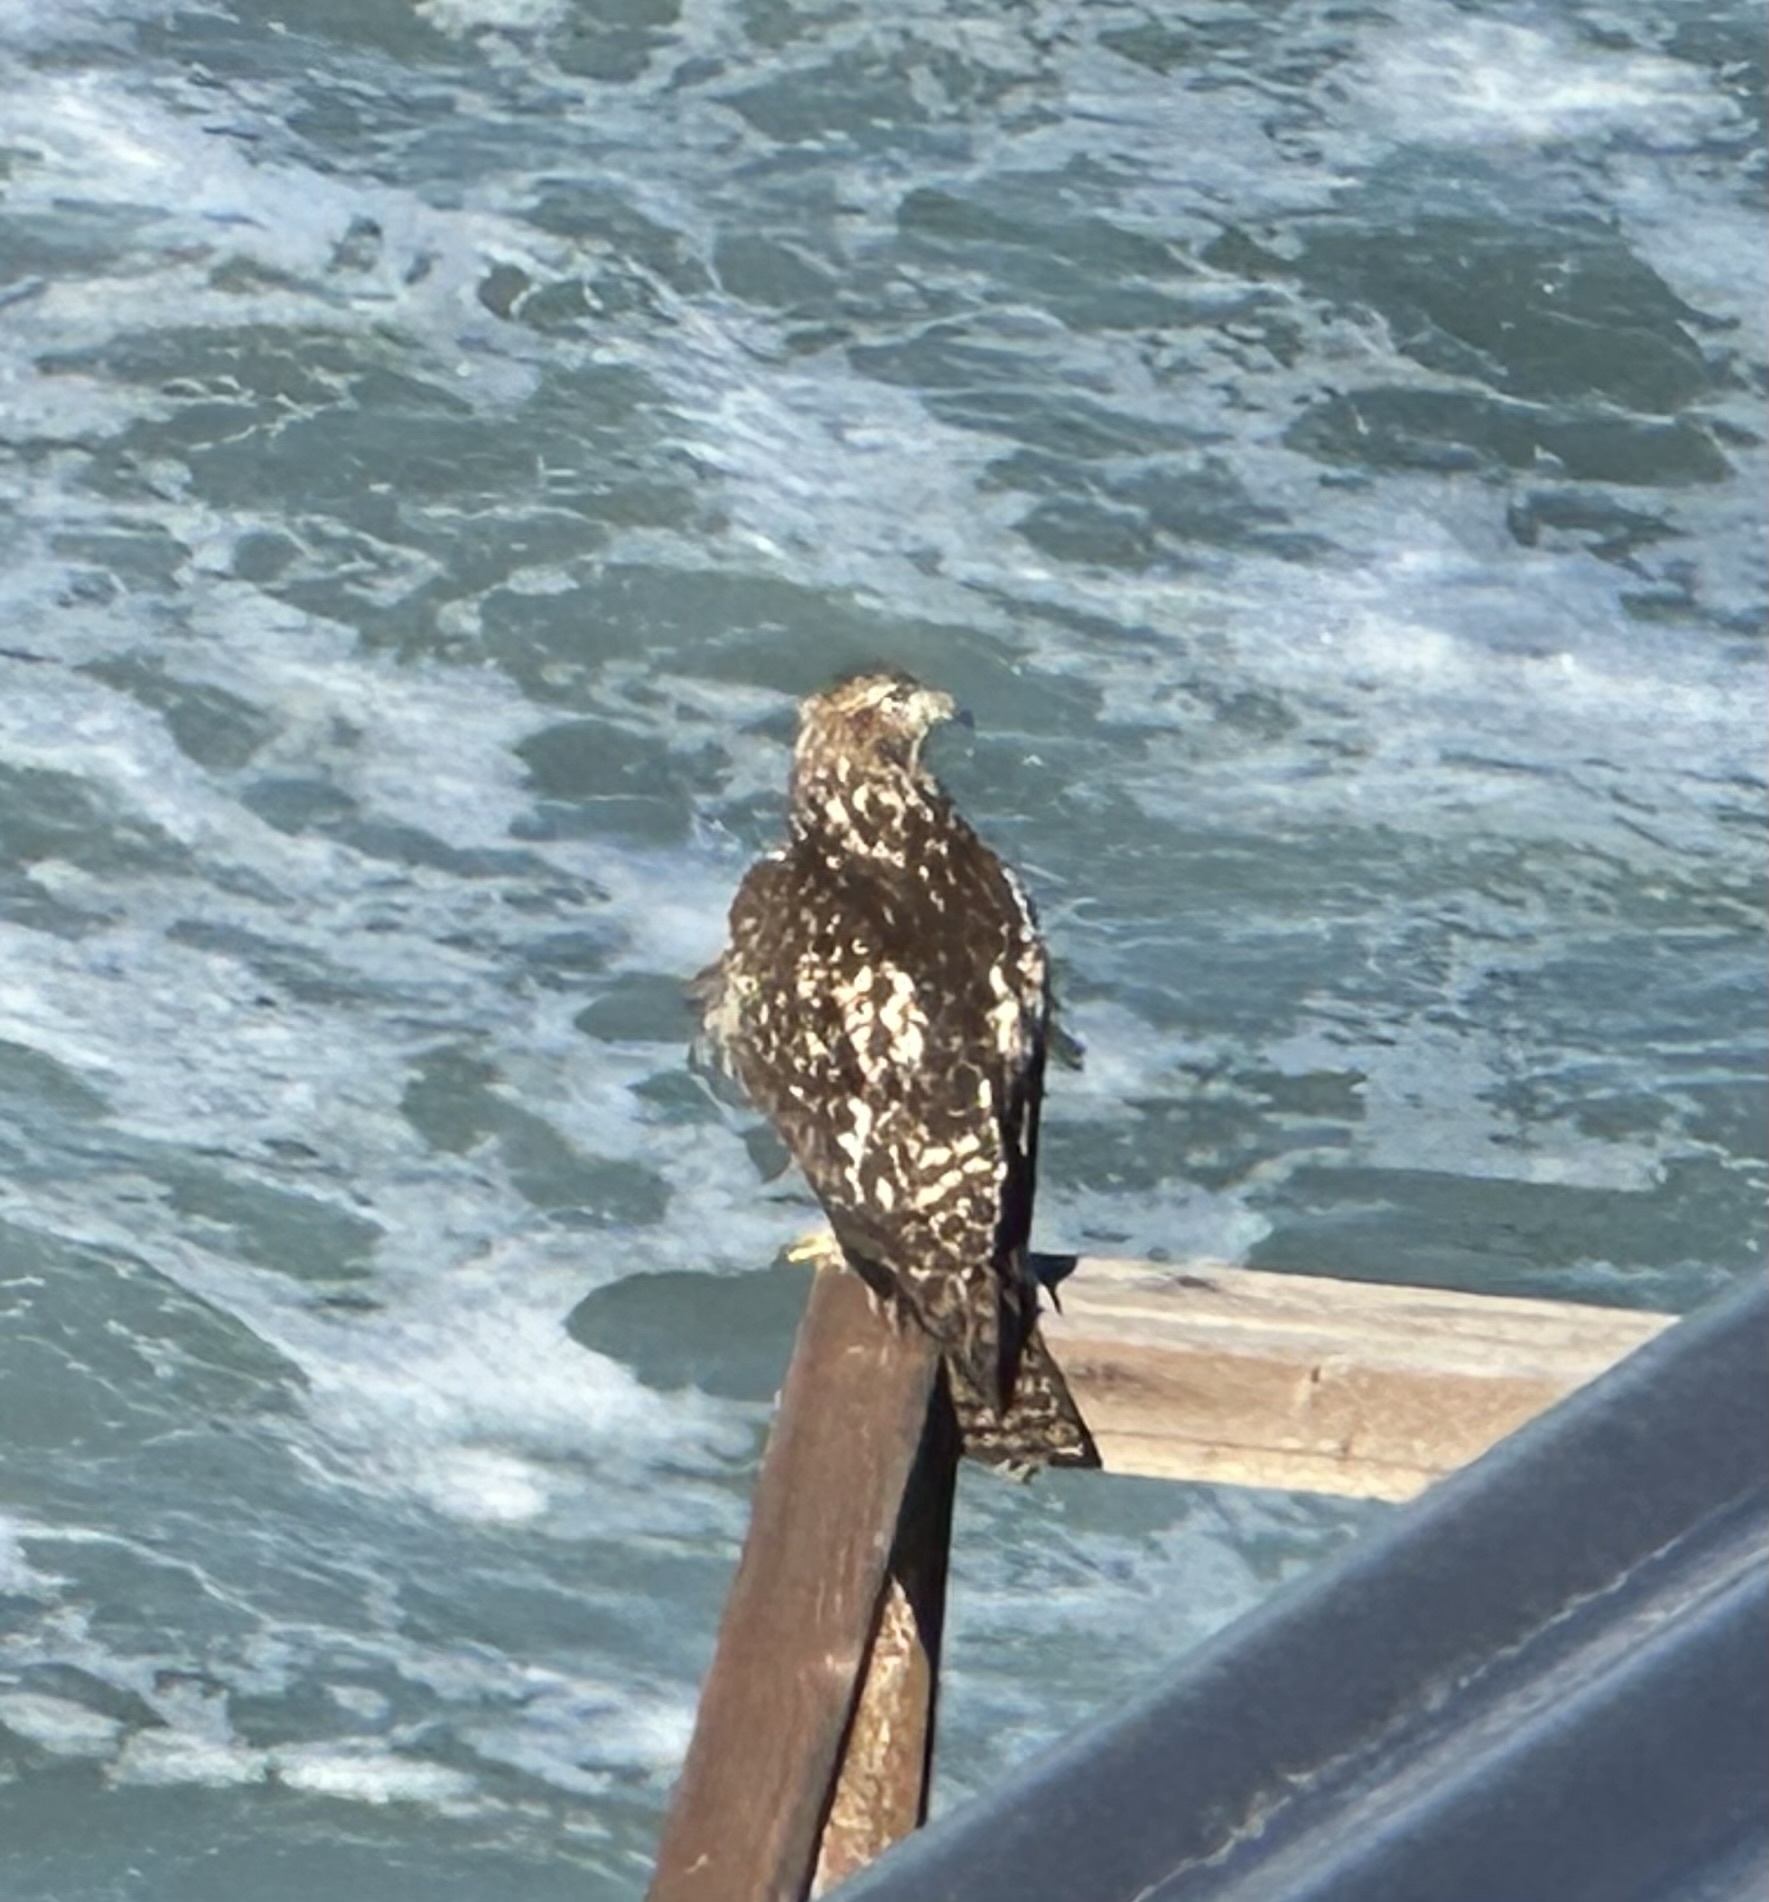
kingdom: Animalia
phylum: Chordata
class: Aves
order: Accipitriformes
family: Accipitridae
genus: Buteo
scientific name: Buteo jamaicensis
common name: Red-tailed hawk
